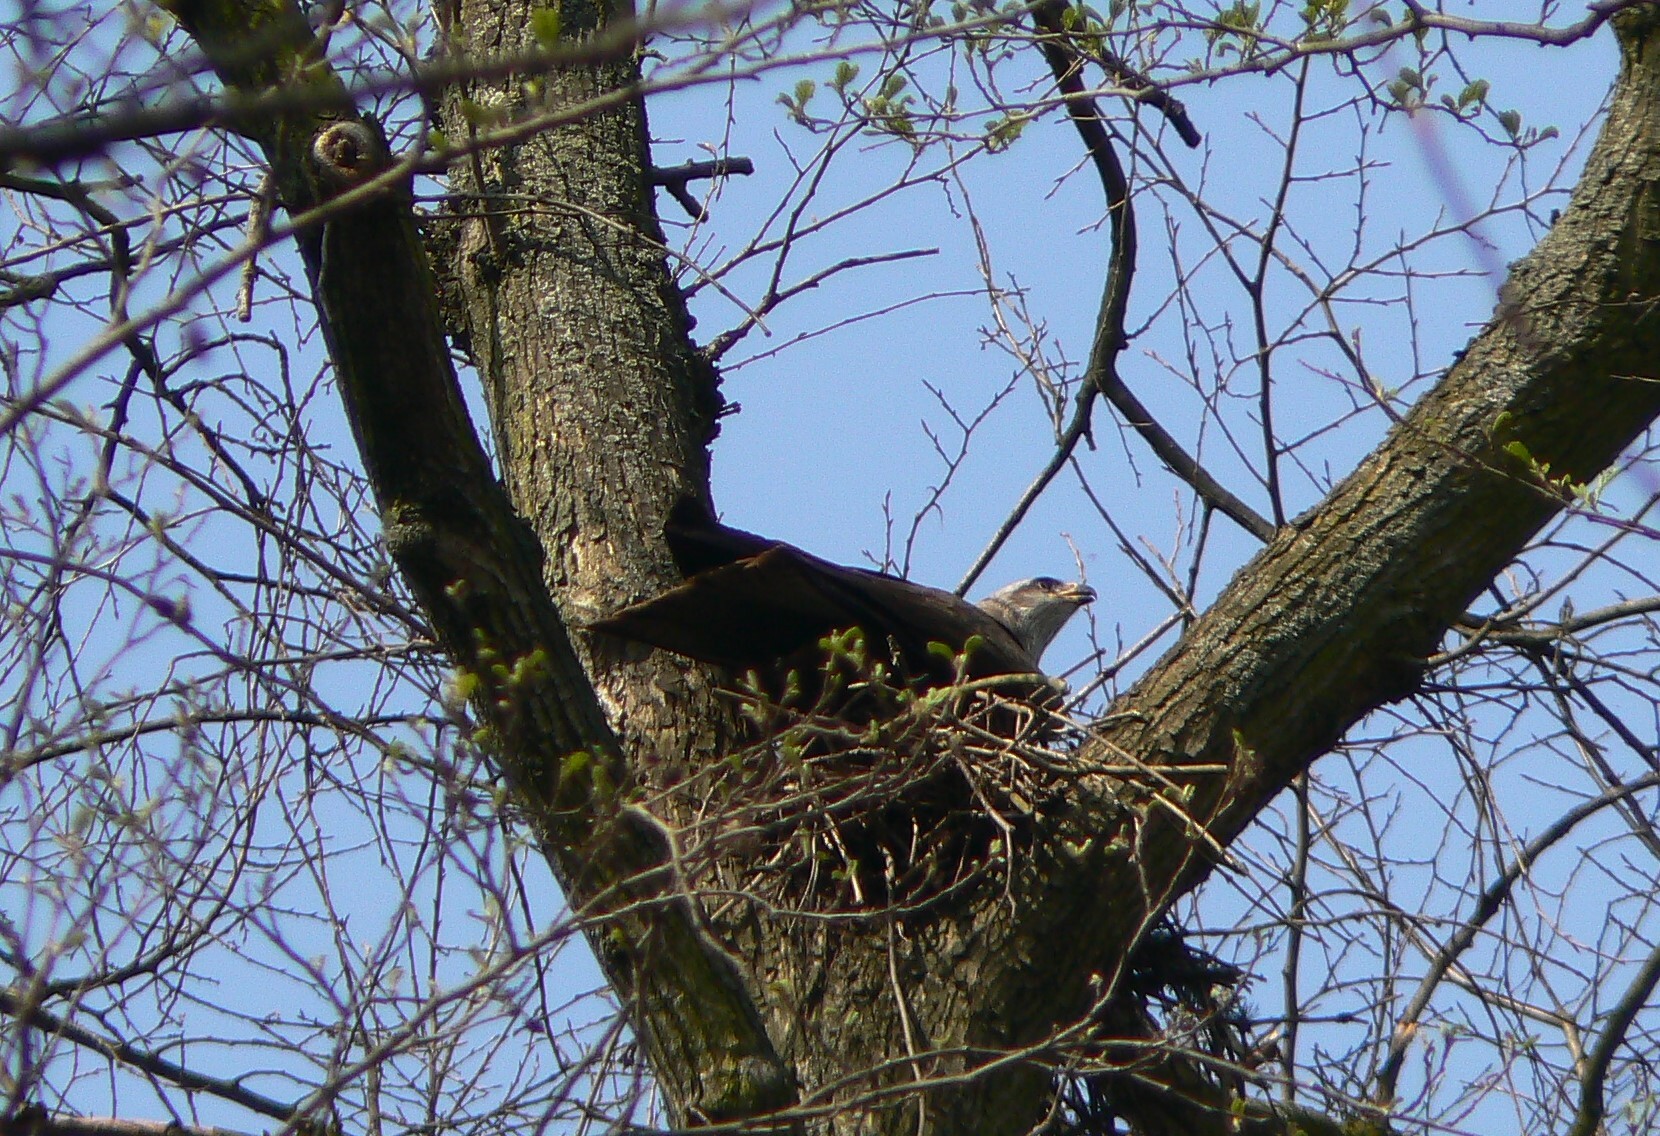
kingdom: Animalia
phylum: Chordata
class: Aves
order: Accipitriformes
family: Accipitridae
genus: Milvus
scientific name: Milvus milvus
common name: Red kite
